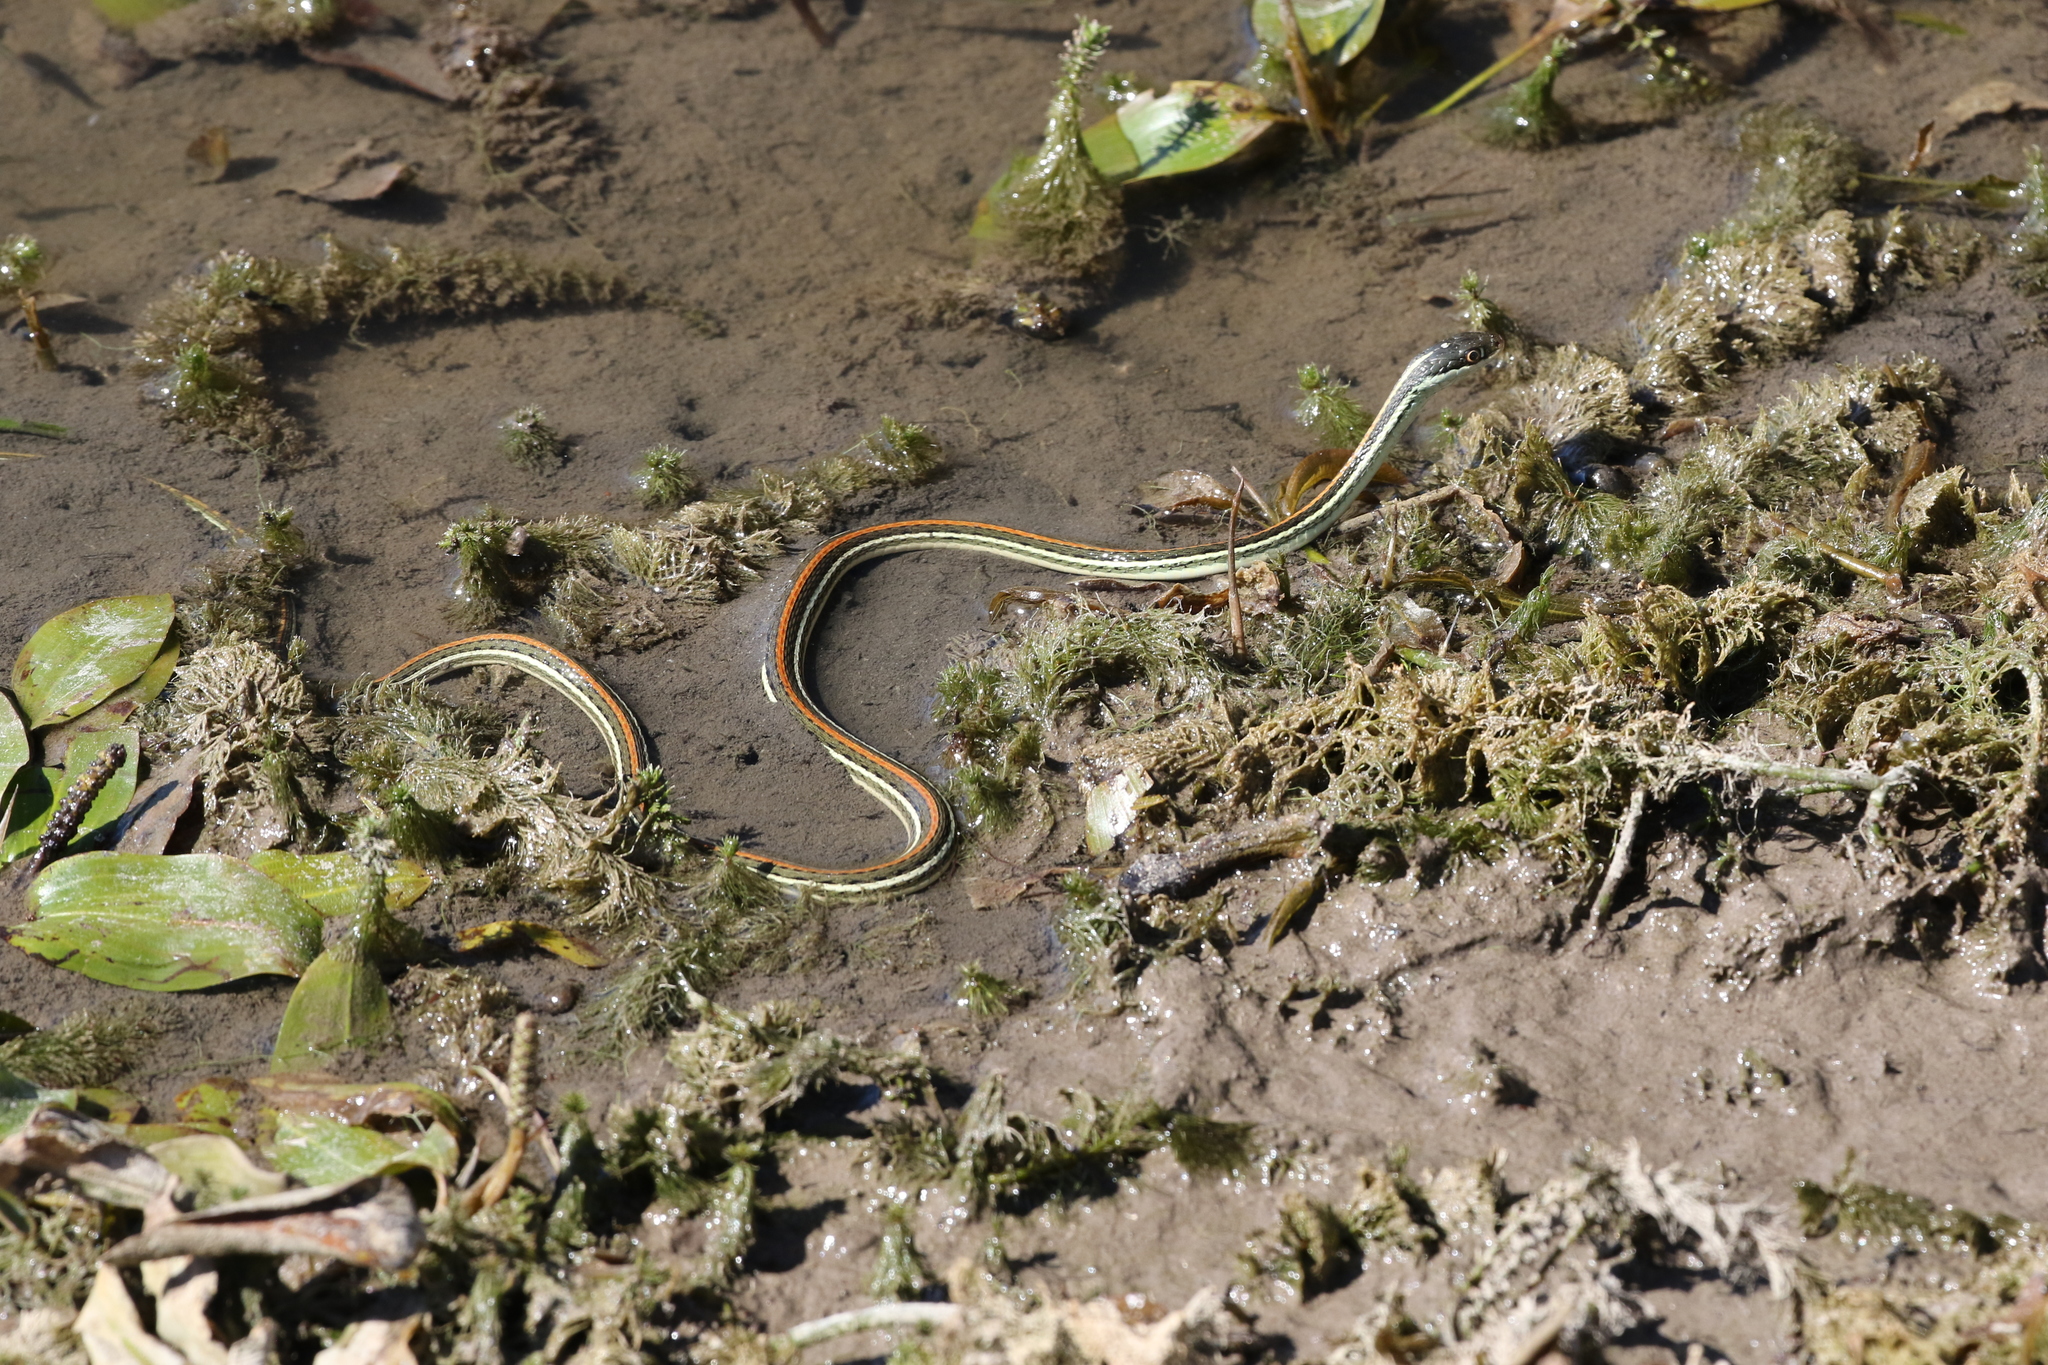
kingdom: Animalia
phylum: Chordata
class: Squamata
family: Colubridae
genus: Thamnophis
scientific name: Thamnophis proximus
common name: Western ribbon snake
